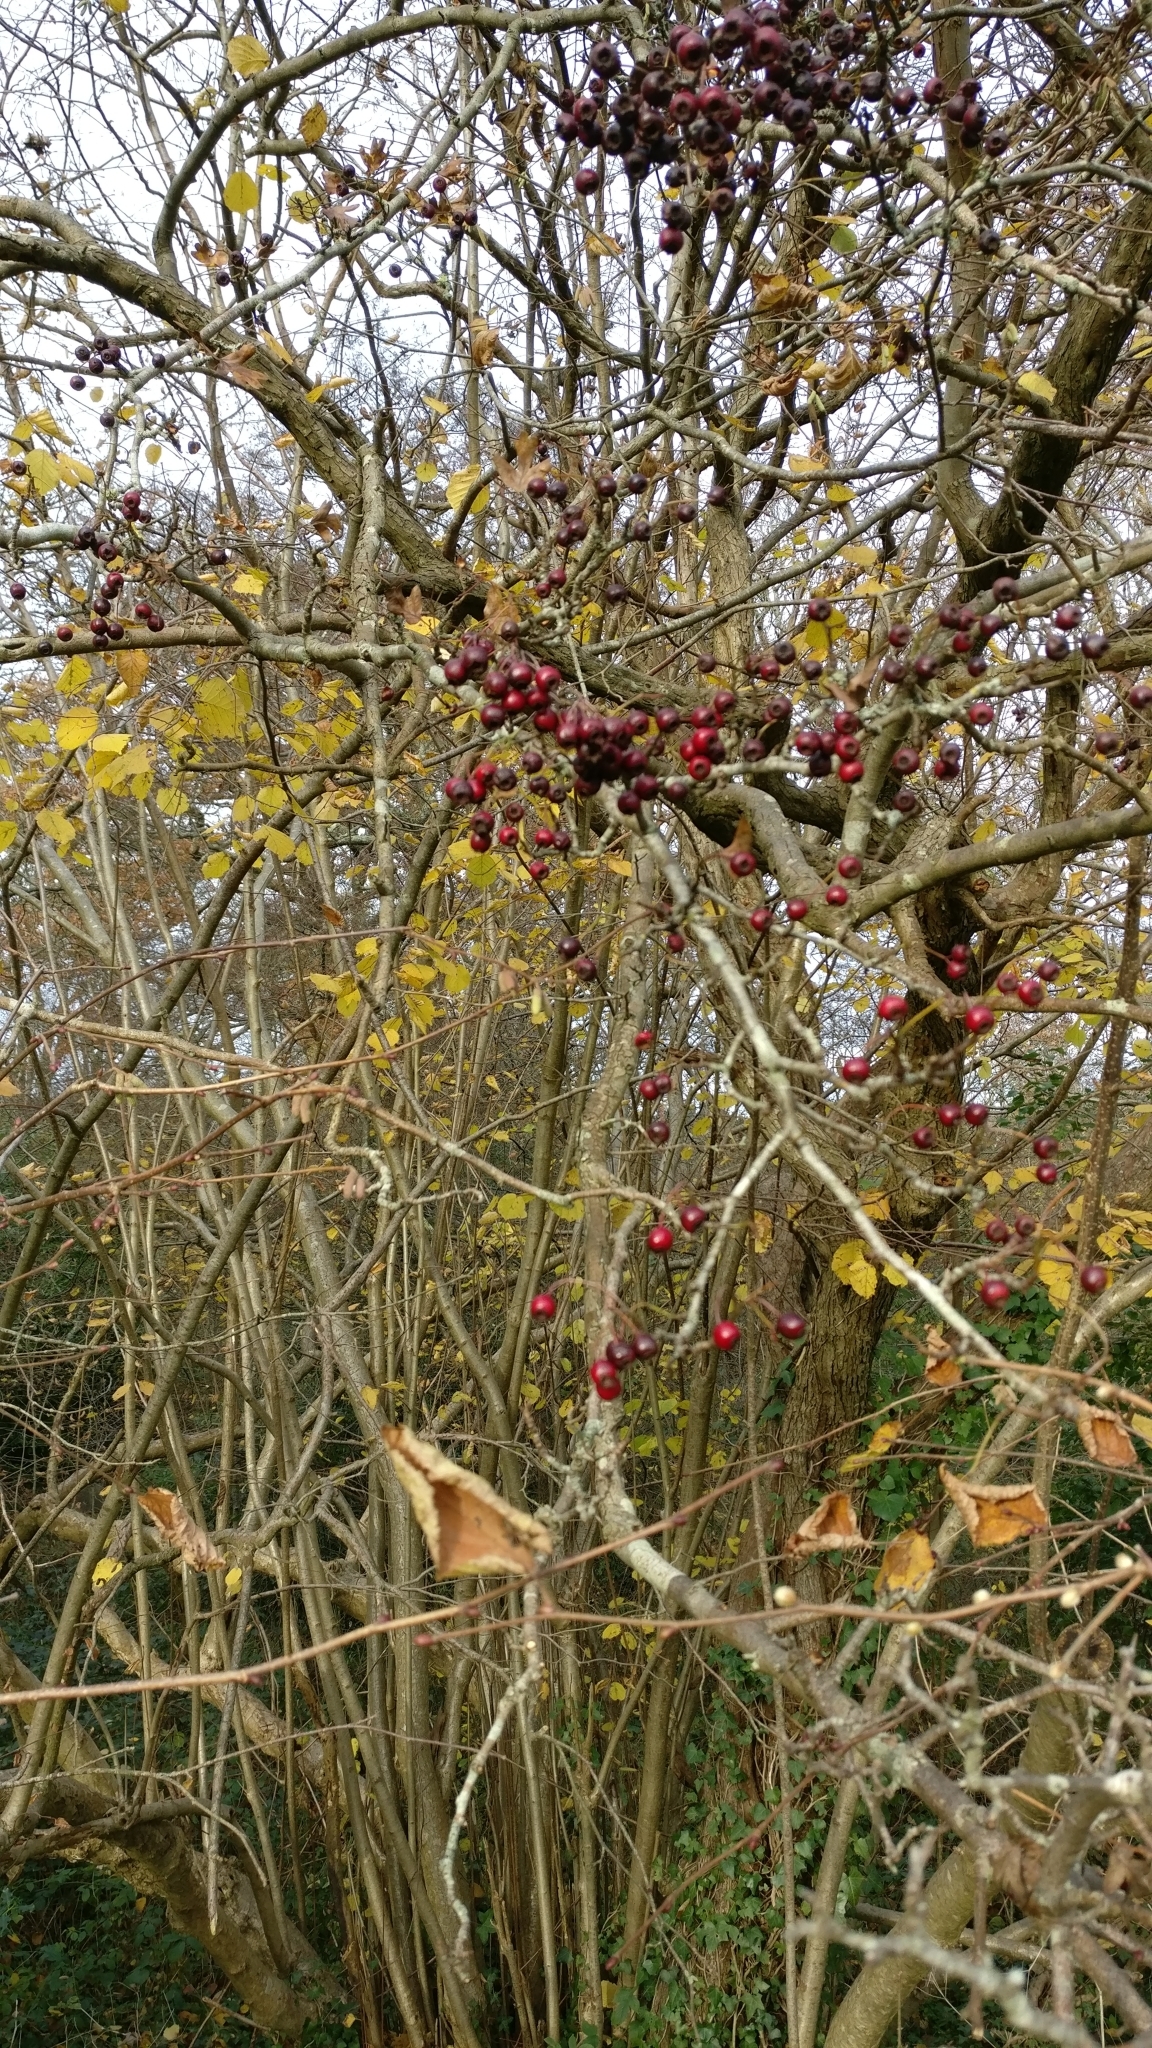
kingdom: Plantae
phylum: Tracheophyta
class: Magnoliopsida
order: Rosales
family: Rosaceae
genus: Crataegus
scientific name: Crataegus monogyna
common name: Hawthorn
